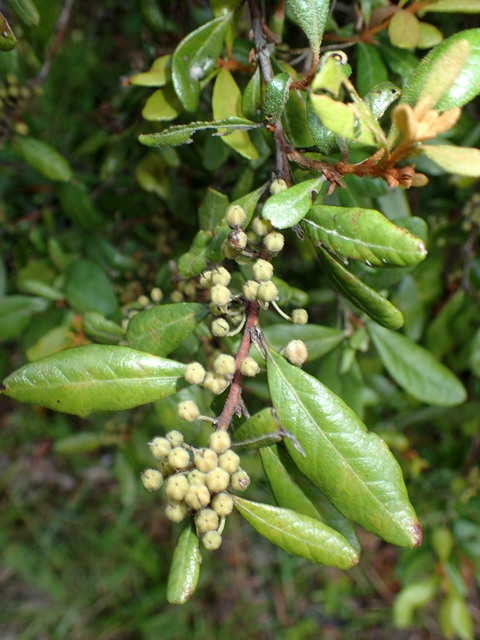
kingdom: Plantae
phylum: Tracheophyta
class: Magnoliopsida
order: Ericales
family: Ericaceae
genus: Lyonia
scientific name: Lyonia ferruginea
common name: Rusty lyonia
